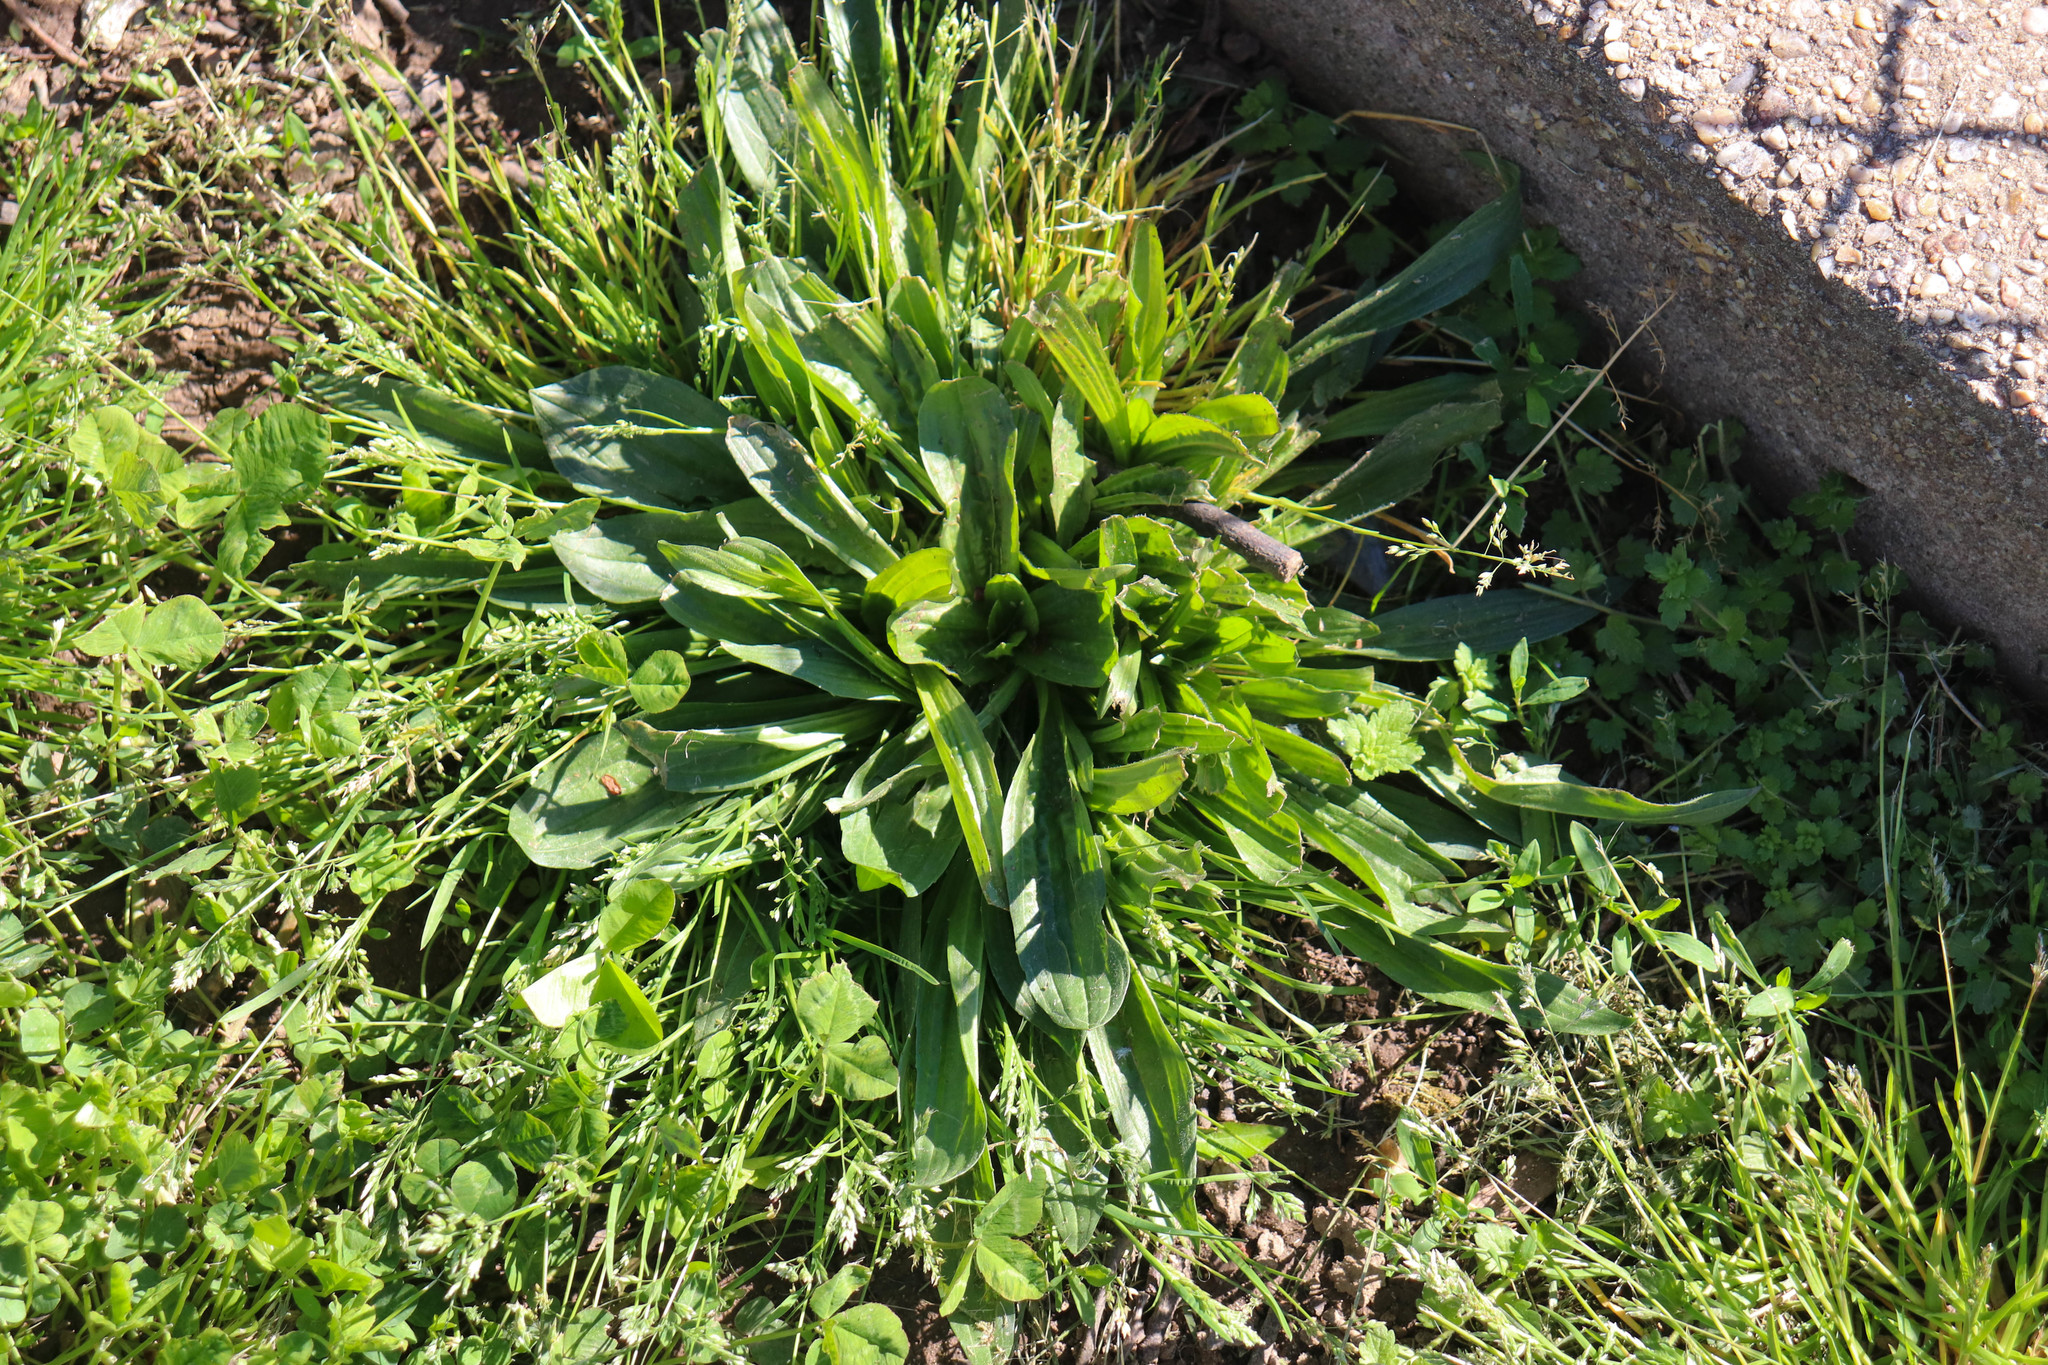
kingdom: Plantae
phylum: Tracheophyta
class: Magnoliopsida
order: Lamiales
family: Plantaginaceae
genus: Plantago
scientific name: Plantago lanceolata
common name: Ribwort plantain
